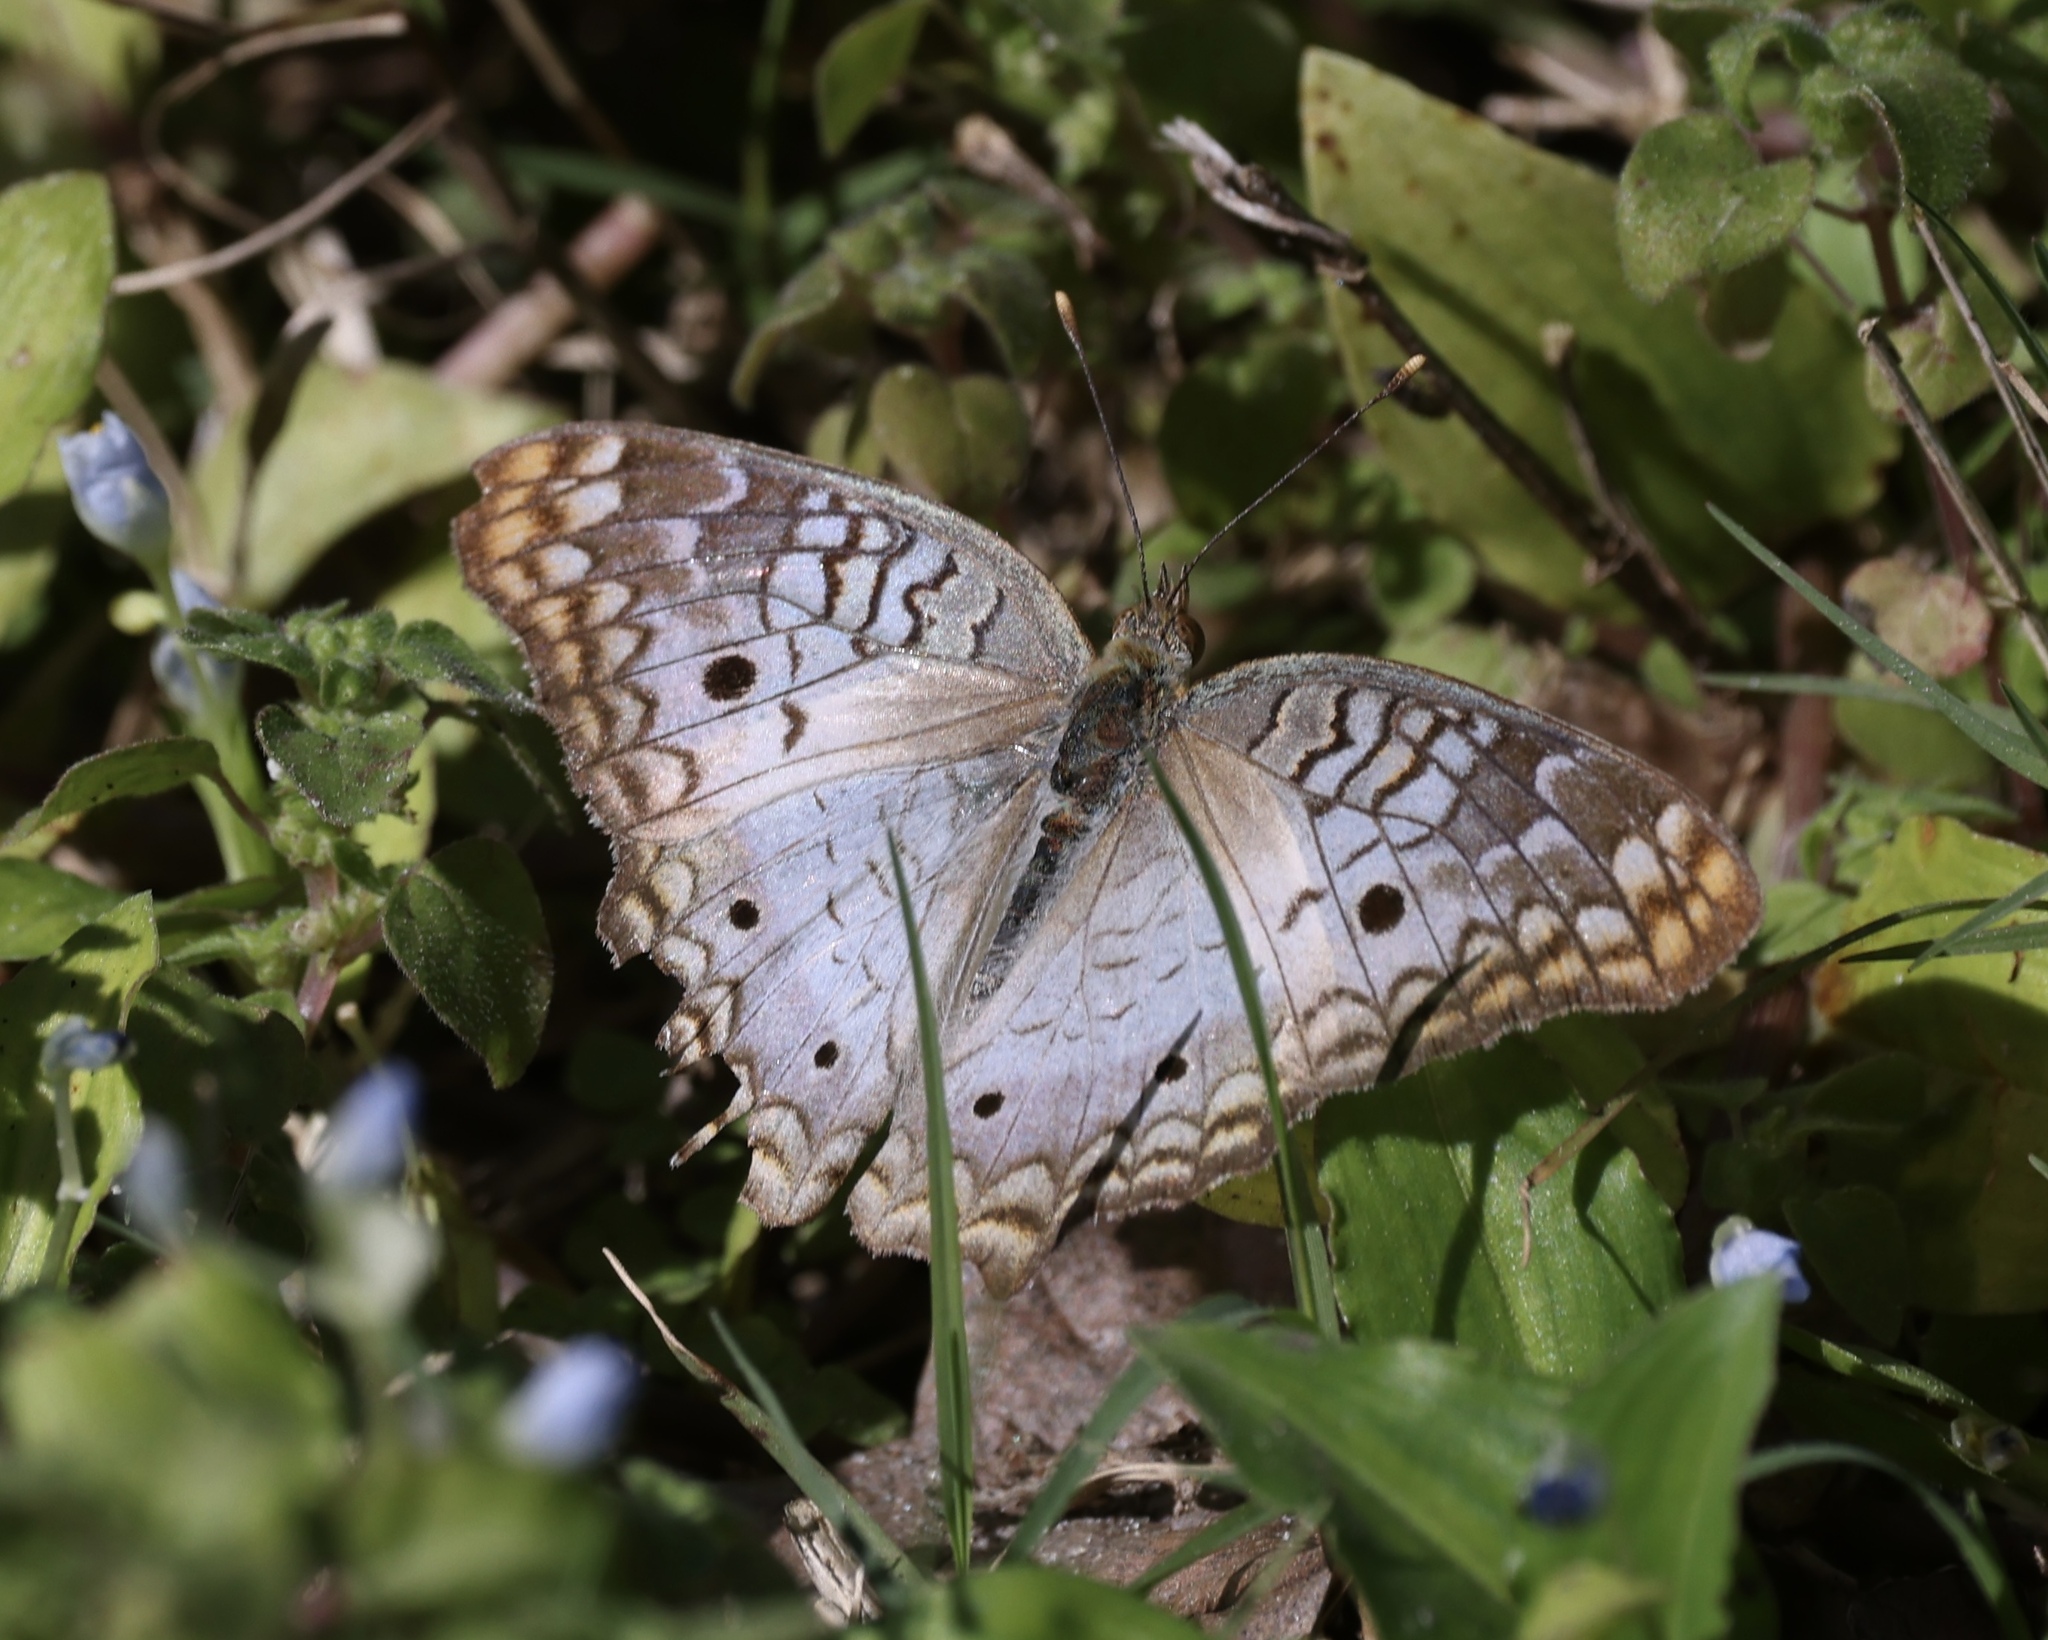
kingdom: Animalia
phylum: Arthropoda
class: Insecta
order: Lepidoptera
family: Nymphalidae
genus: Anartia
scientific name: Anartia jatrophae
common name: White peacock
